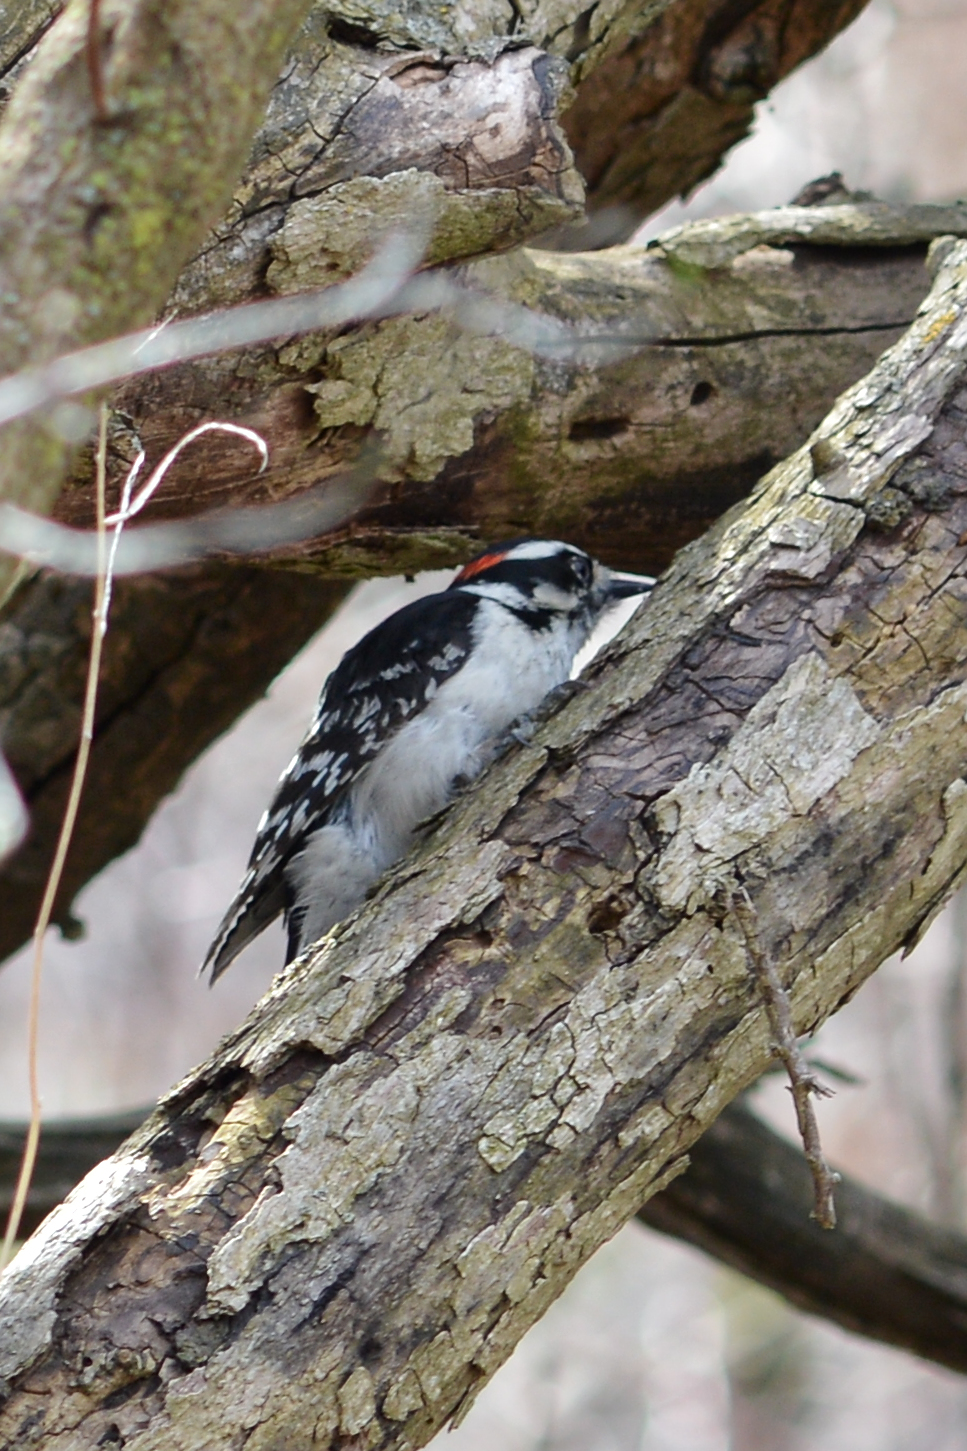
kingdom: Animalia
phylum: Chordata
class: Aves
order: Piciformes
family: Picidae
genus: Dryobates
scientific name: Dryobates pubescens
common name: Downy woodpecker
